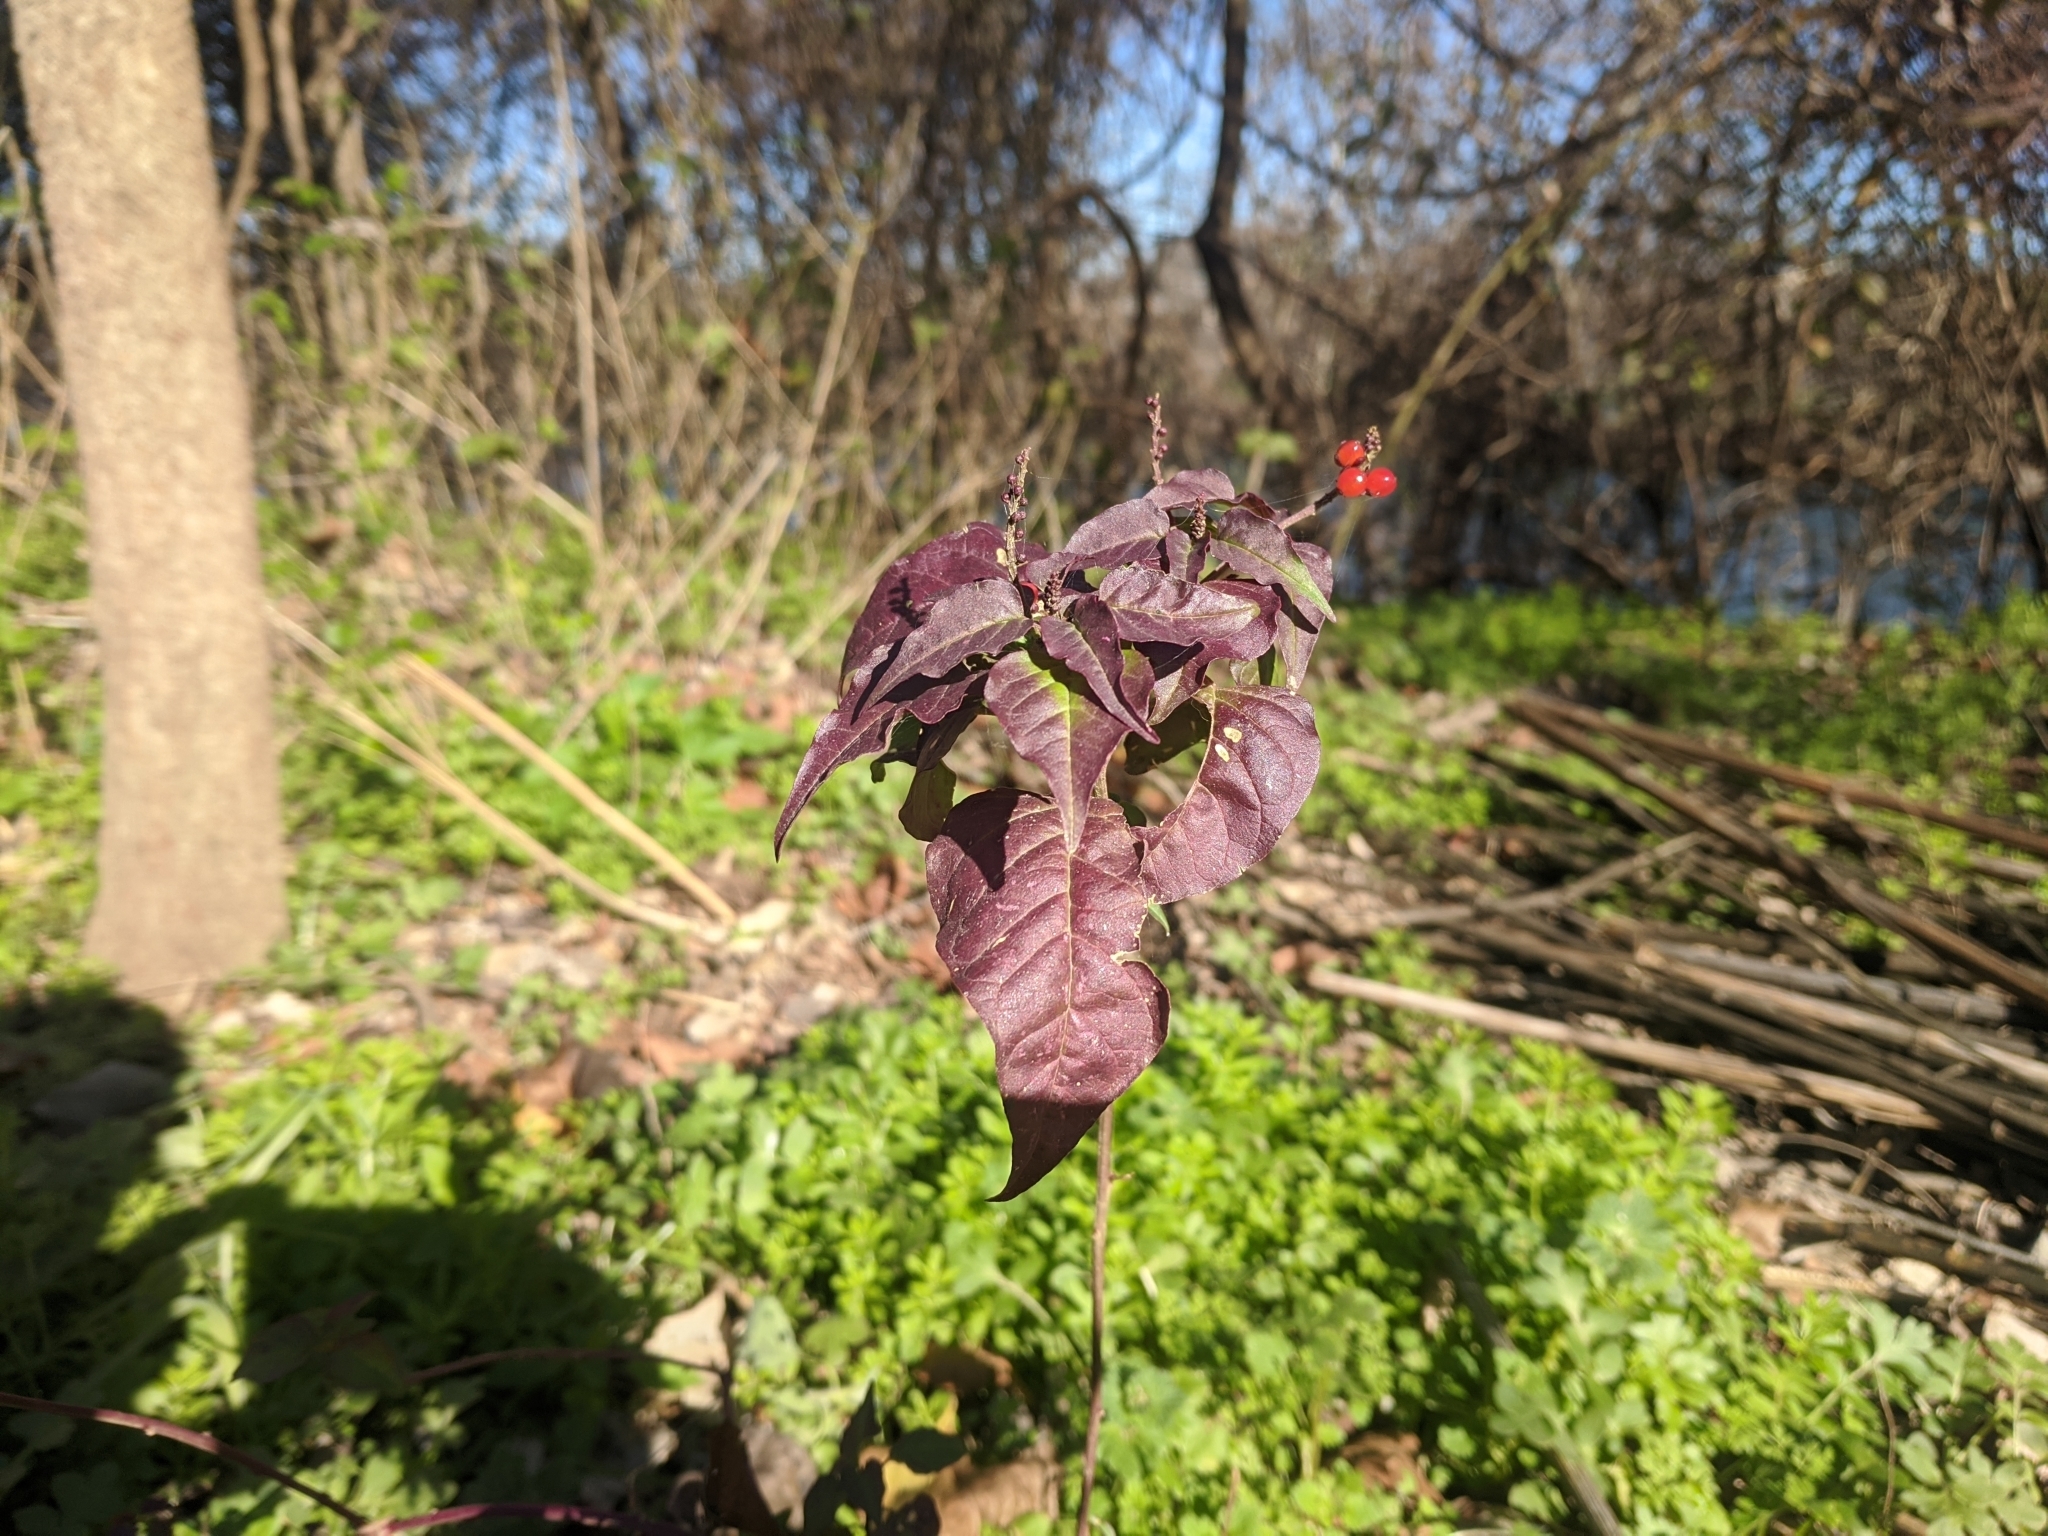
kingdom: Plantae
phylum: Tracheophyta
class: Magnoliopsida
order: Caryophyllales
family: Phytolaccaceae
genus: Rivina
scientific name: Rivina humilis
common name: Rougeplant
